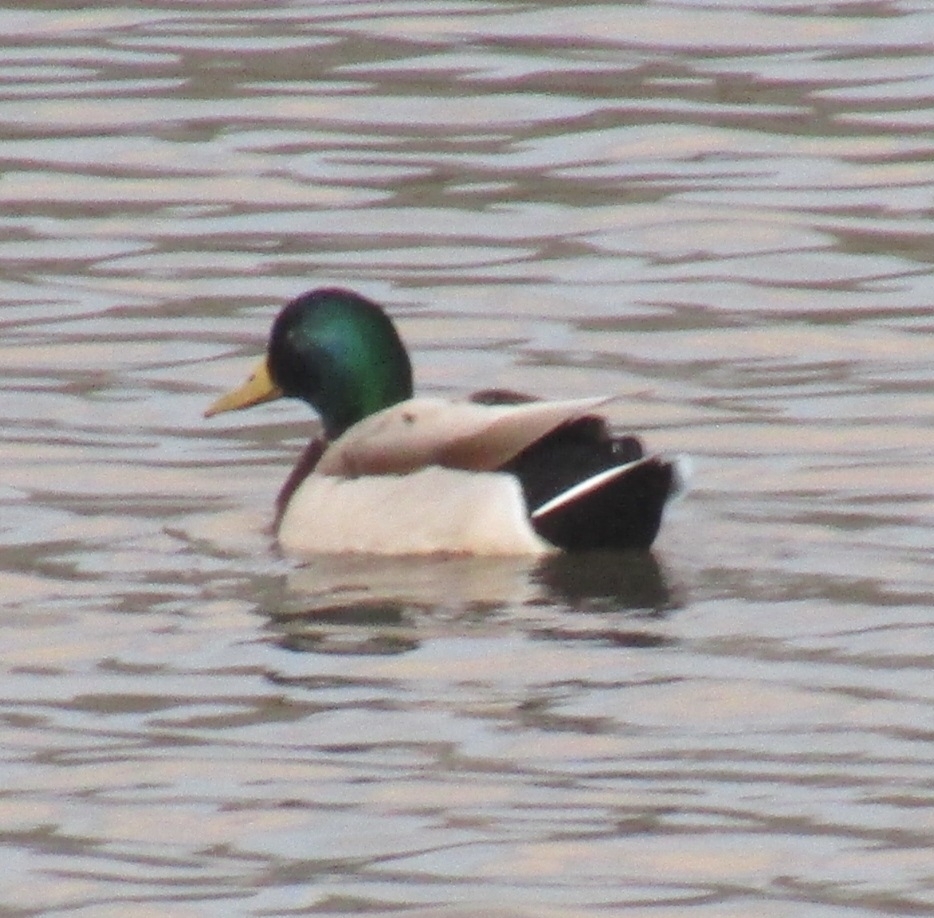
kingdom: Animalia
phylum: Chordata
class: Aves
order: Anseriformes
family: Anatidae
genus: Anas
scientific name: Anas platyrhynchos
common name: Mallard
